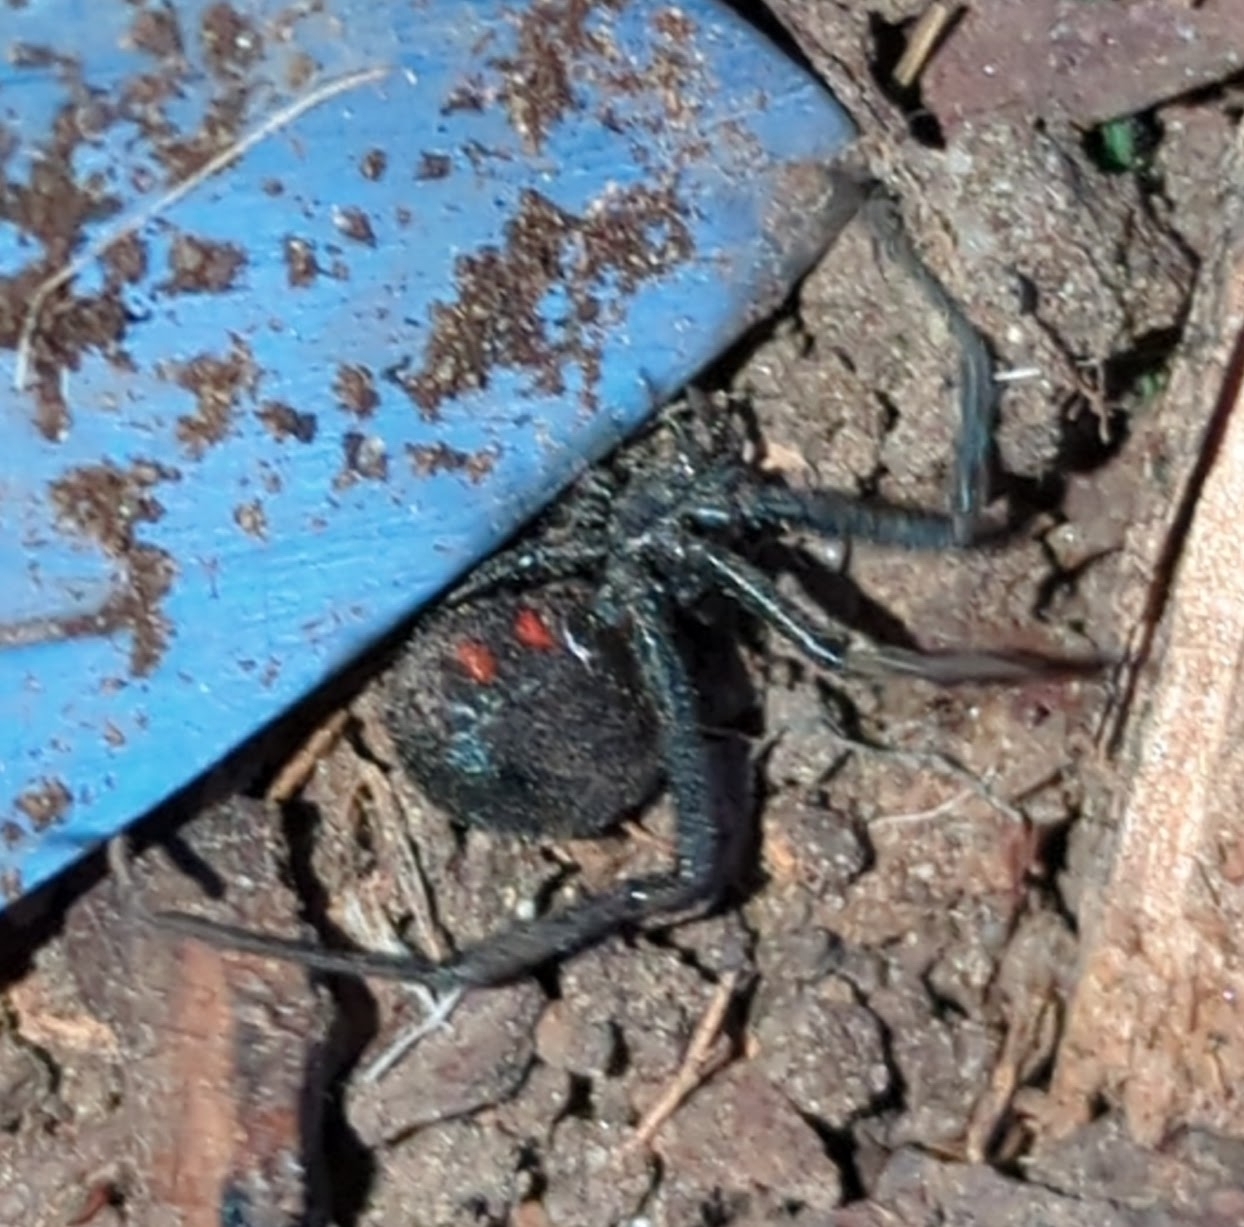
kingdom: Animalia
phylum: Arthropoda
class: Arachnida
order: Araneae
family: Theridiidae
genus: Latrodectus
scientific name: Latrodectus hesperus
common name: Western black widow
